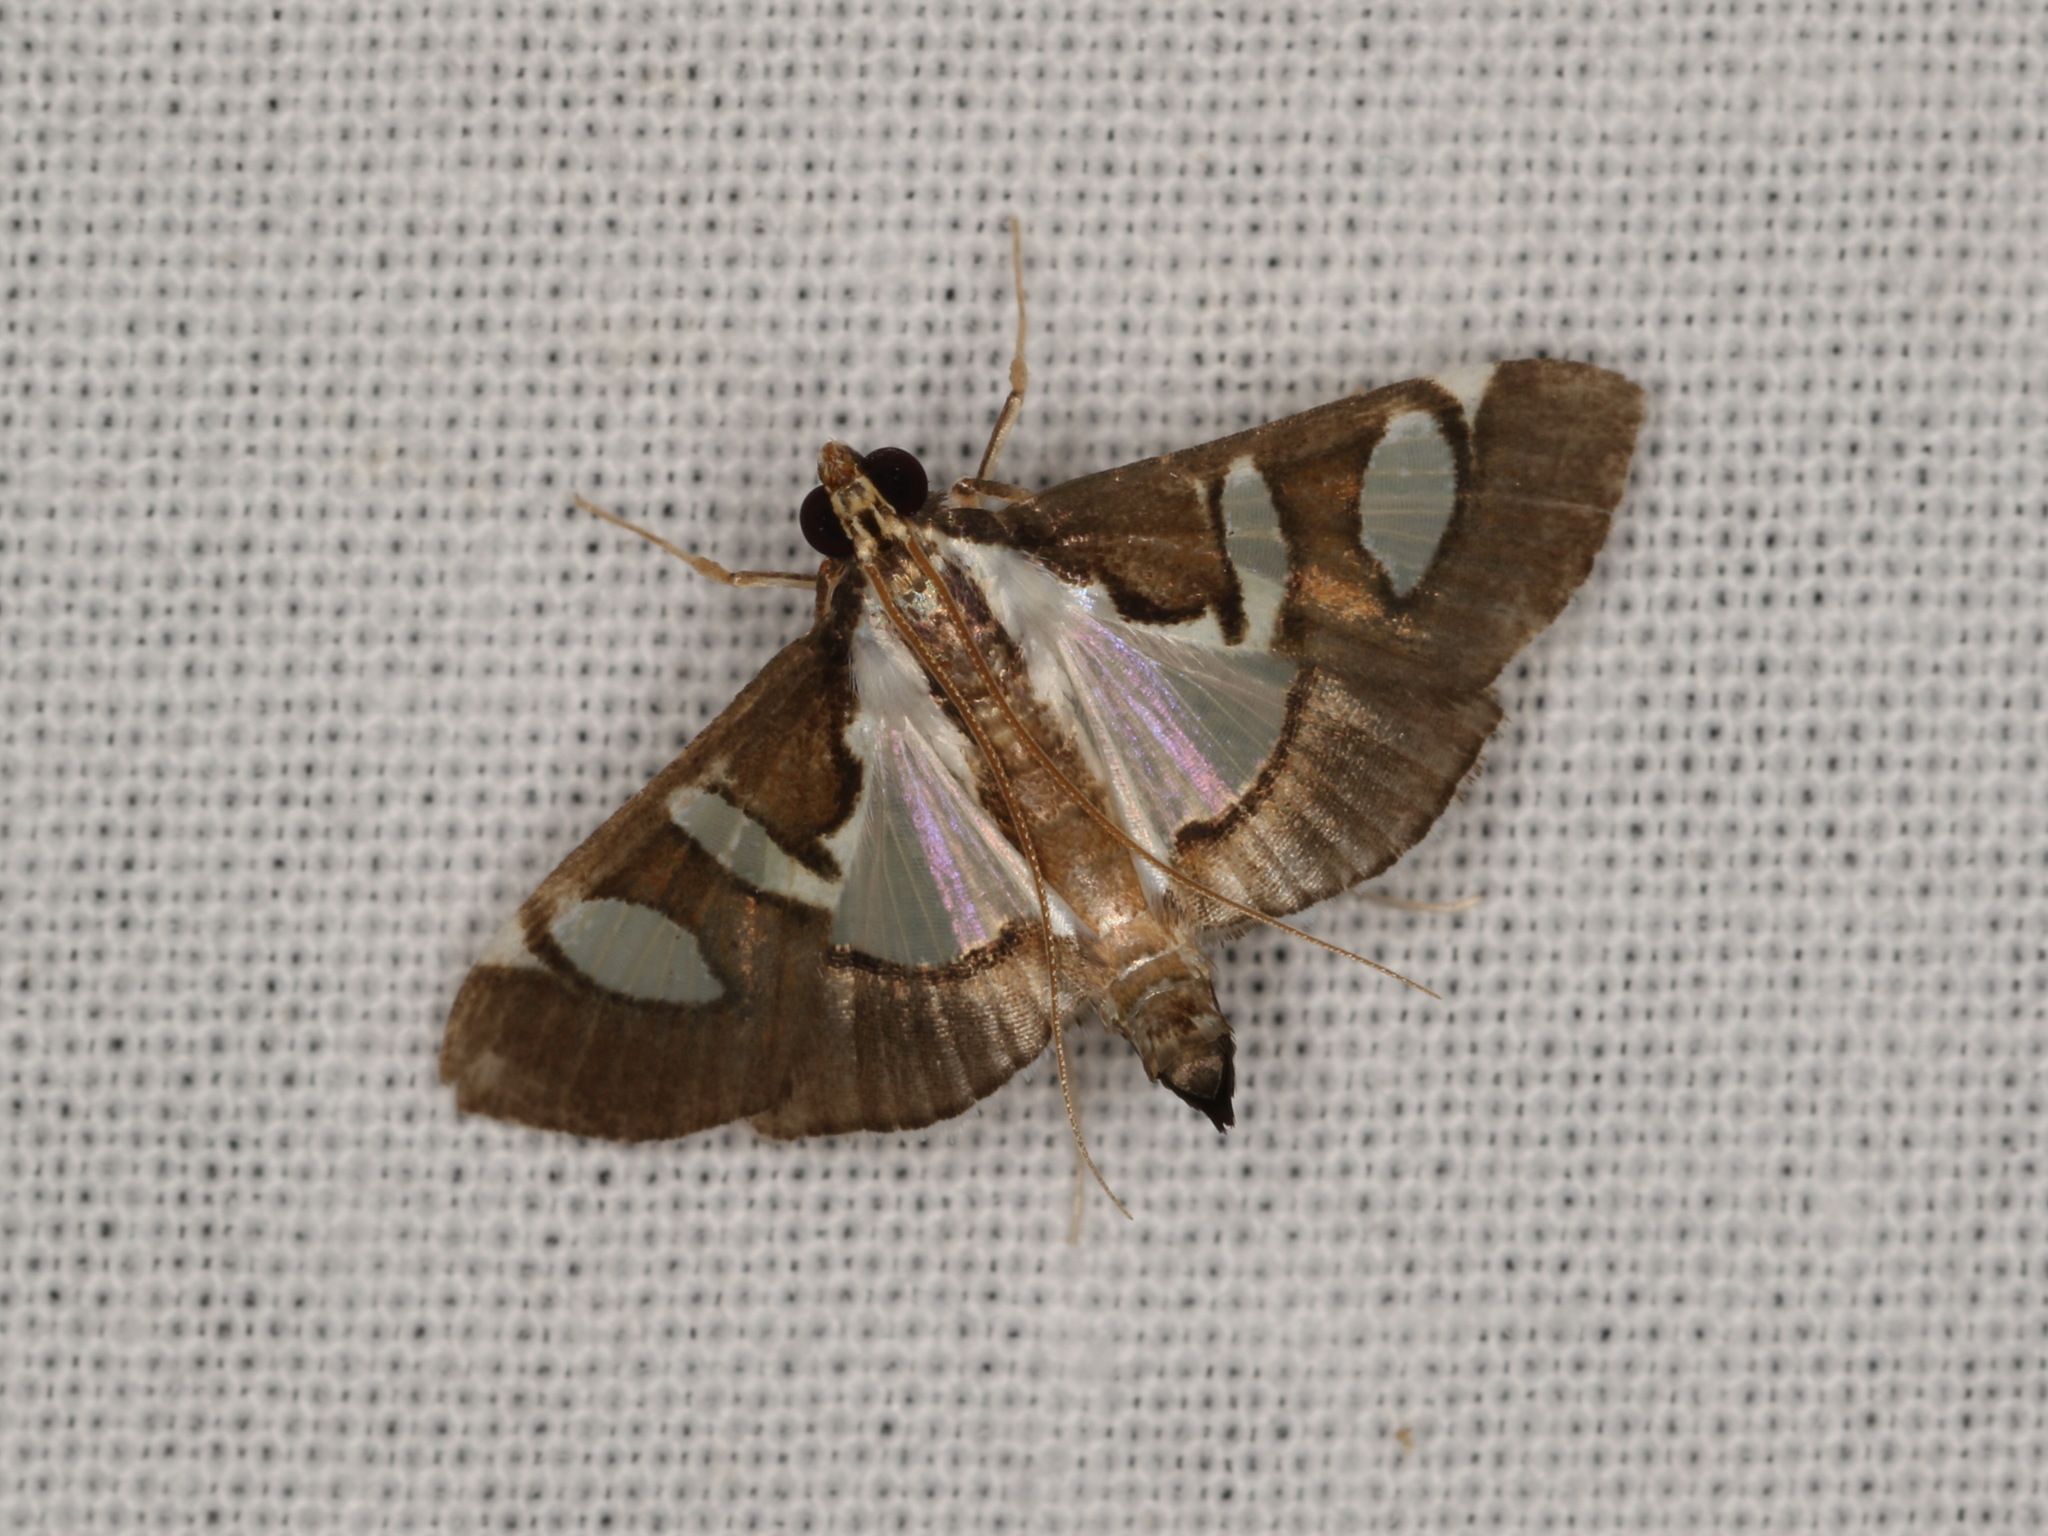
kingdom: Animalia
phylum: Arthropoda
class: Insecta
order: Lepidoptera
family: Crambidae
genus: Glyphodes
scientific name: Glyphodes bicolor
